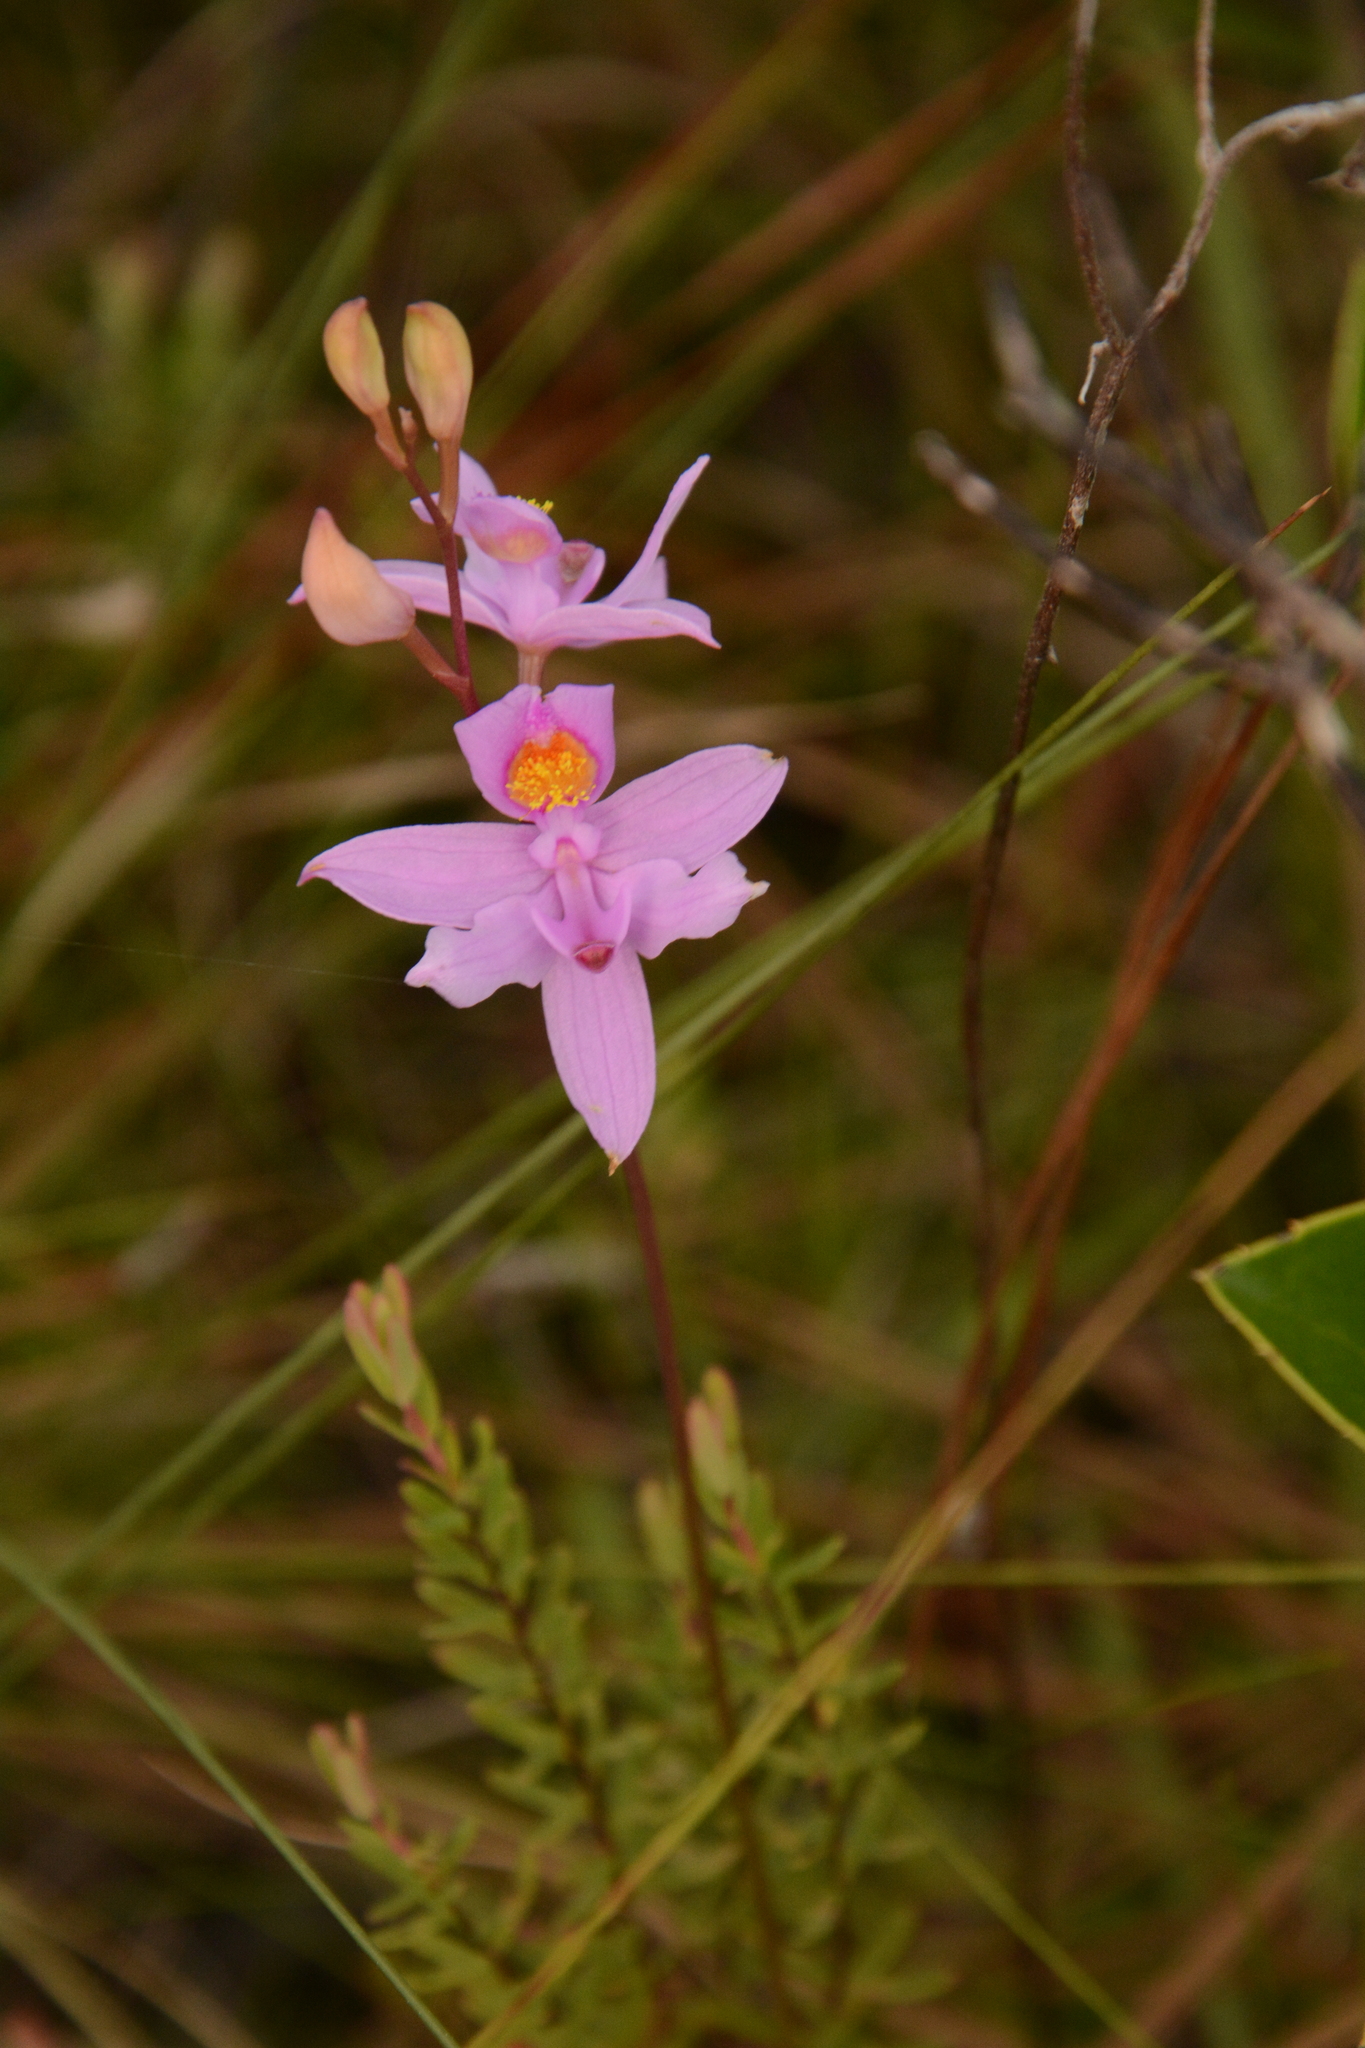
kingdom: Plantae
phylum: Tracheophyta
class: Liliopsida
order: Asparagales
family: Orchidaceae
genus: Calopogon
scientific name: Calopogon barbatus
